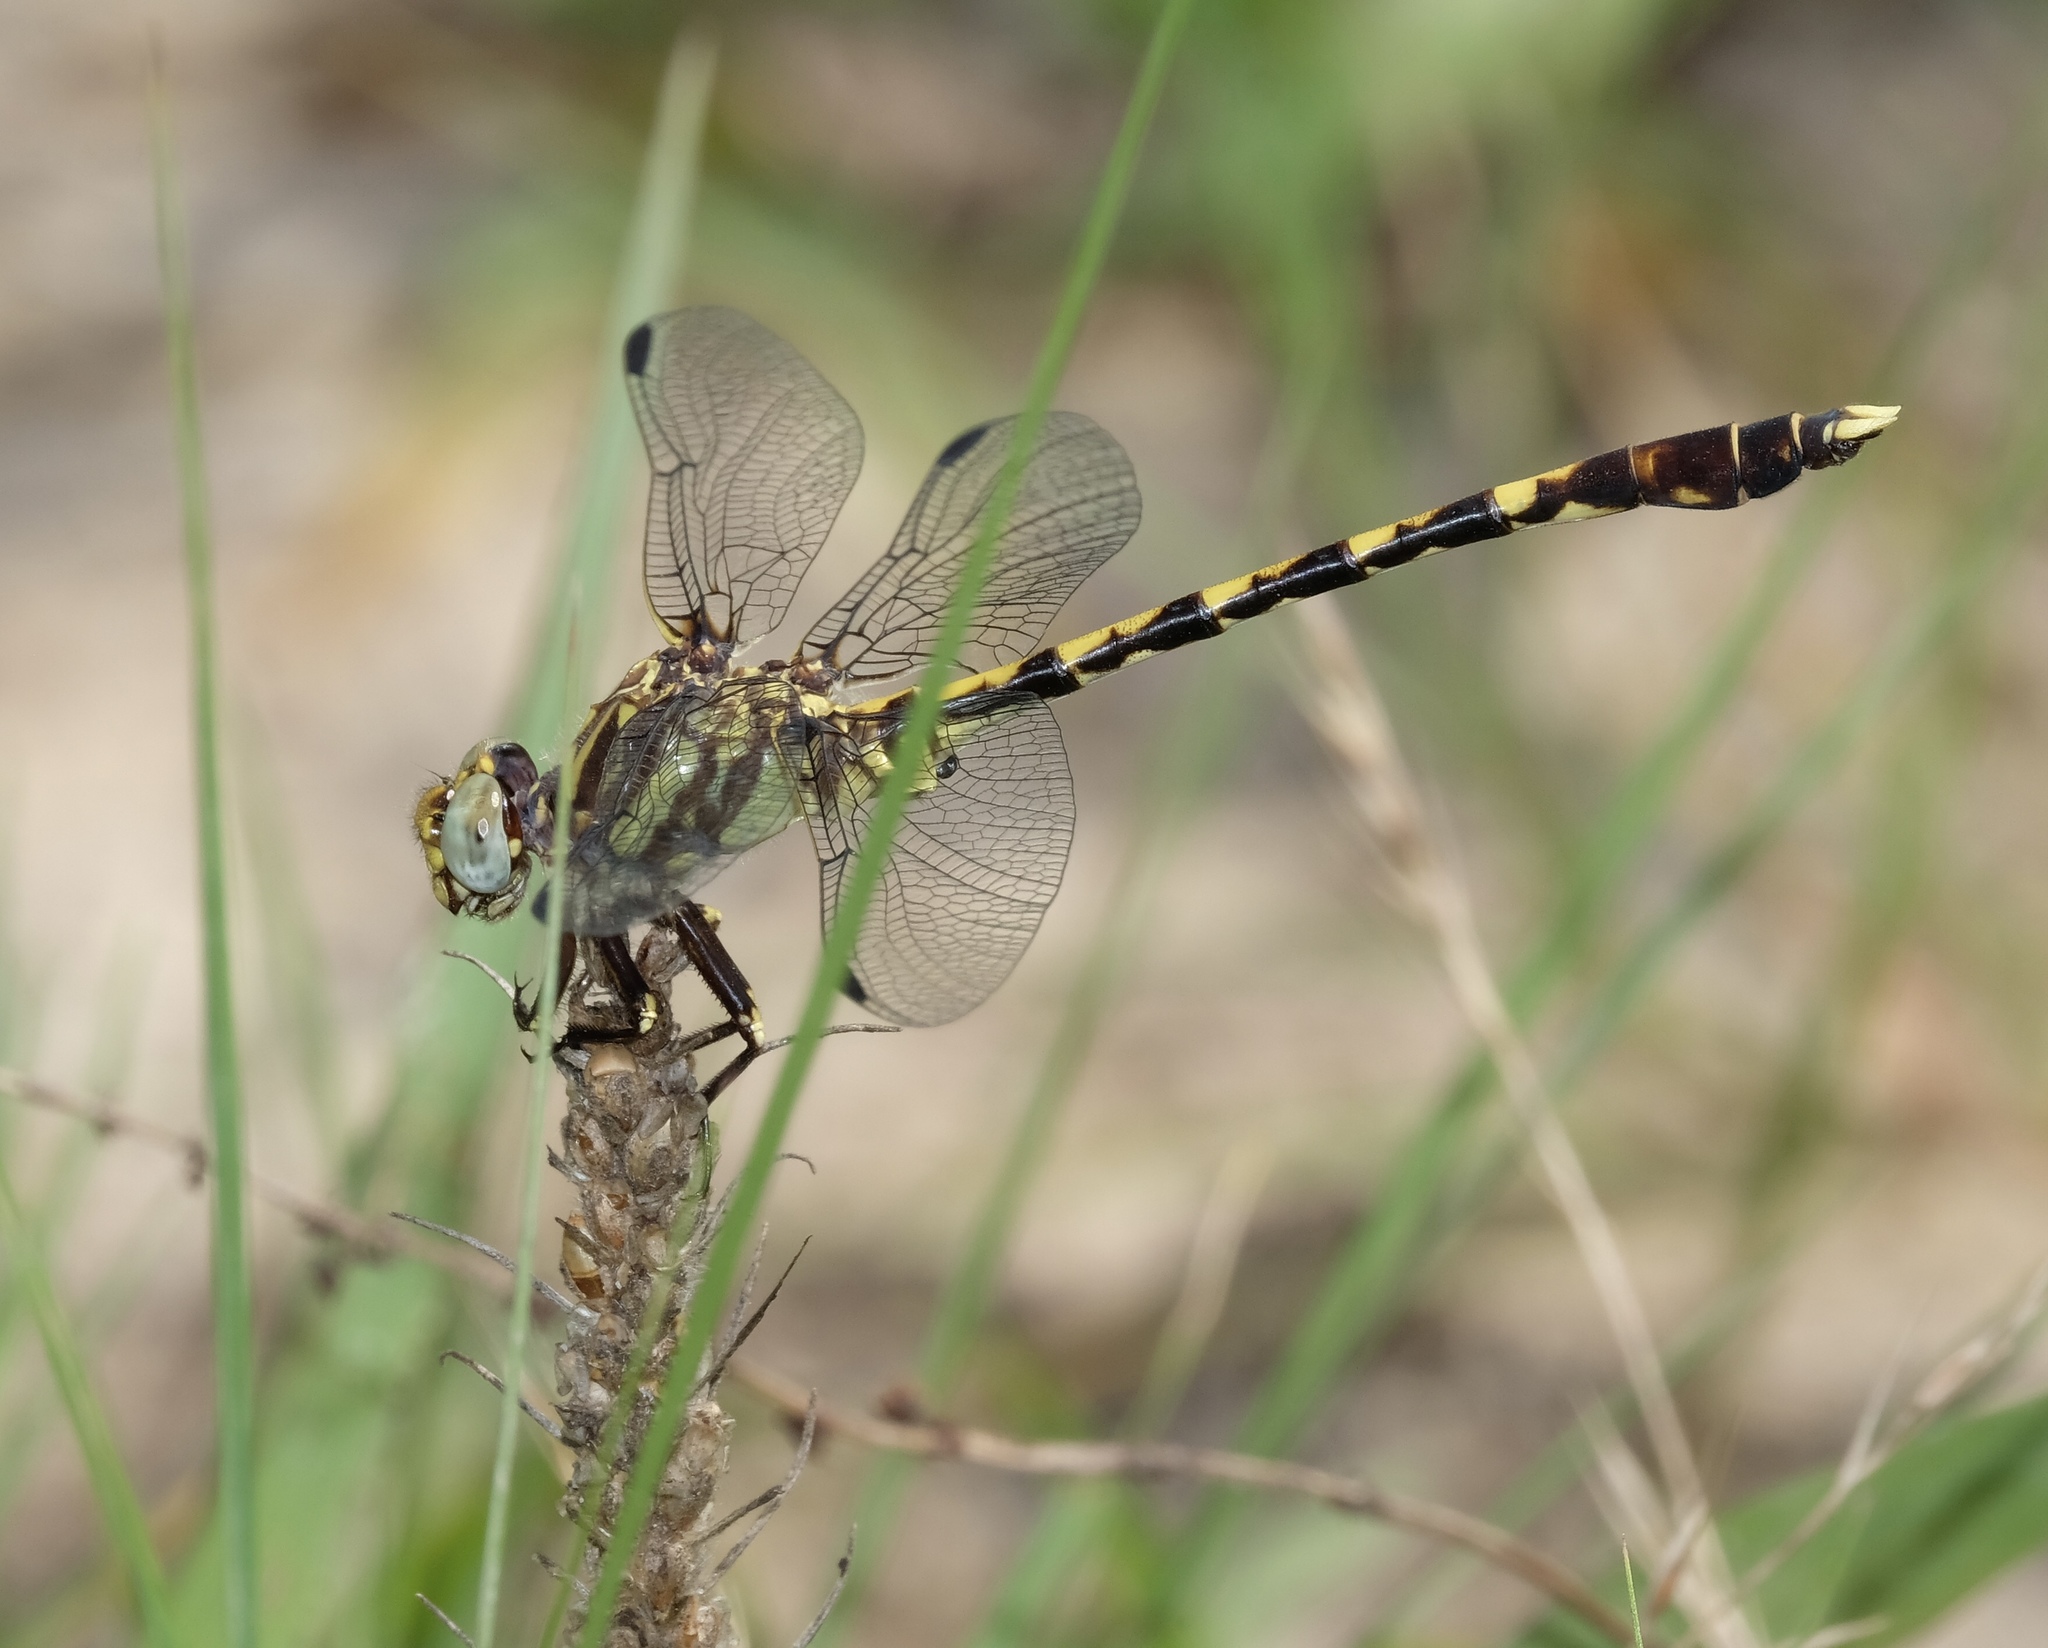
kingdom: Animalia
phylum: Arthropoda
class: Insecta
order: Odonata
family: Gomphidae
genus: Progomphus
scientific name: Progomphus obscurus
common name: Common sanddragon
